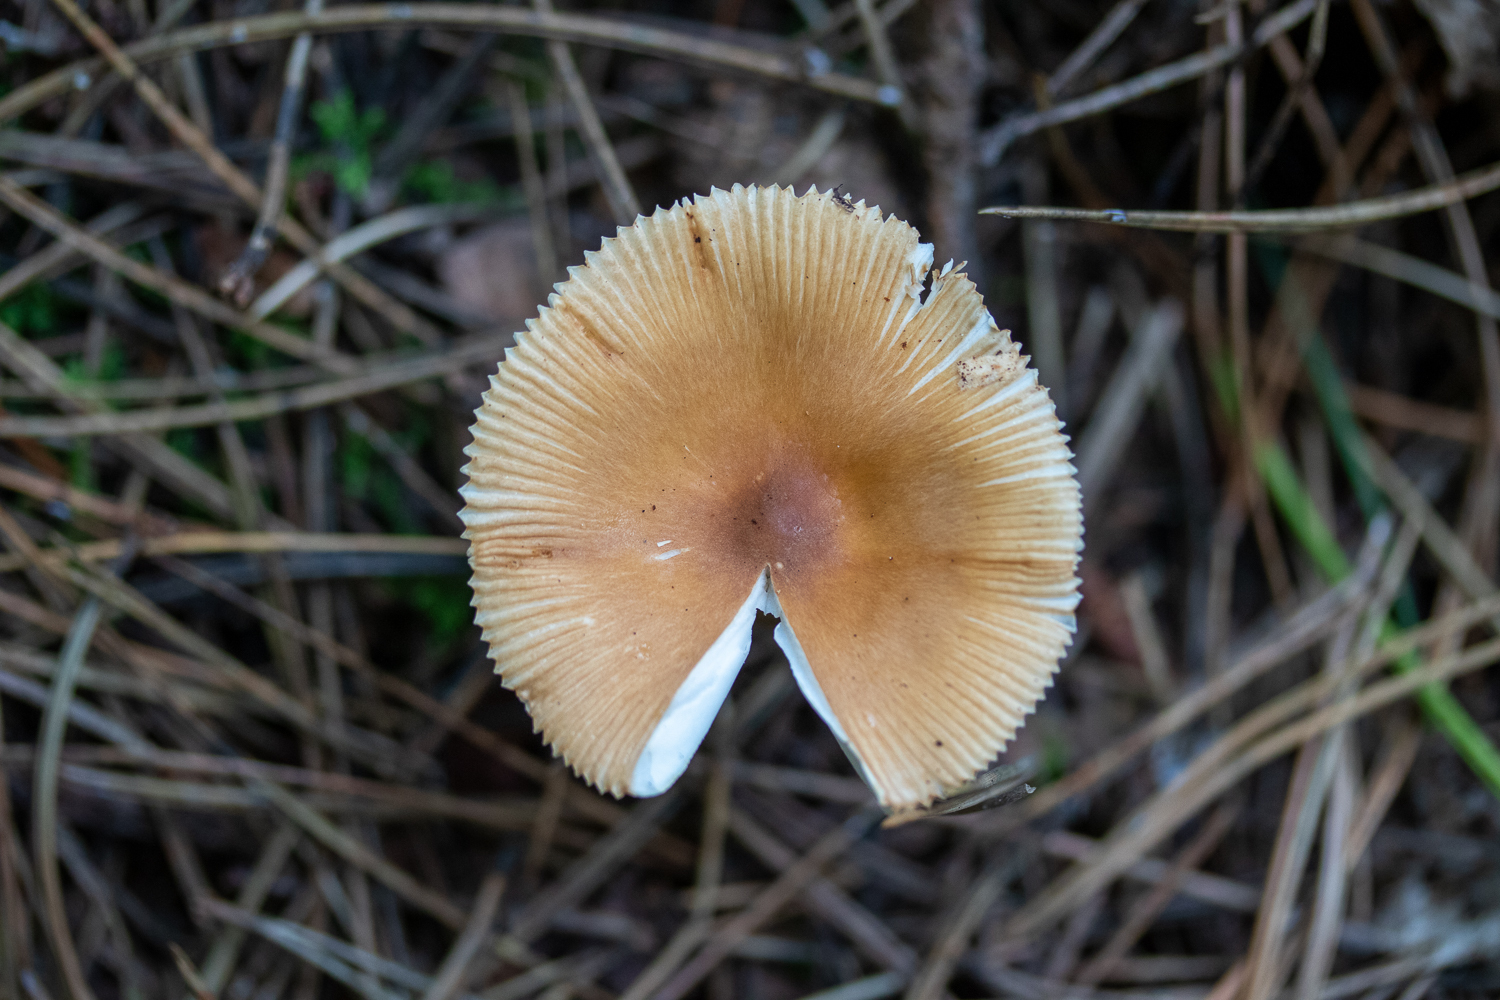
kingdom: Fungi
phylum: Basidiomycota
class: Agaricomycetes
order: Agaricales
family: Amanitaceae
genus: Amanita
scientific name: Amanita fulva
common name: Tawny grisette
